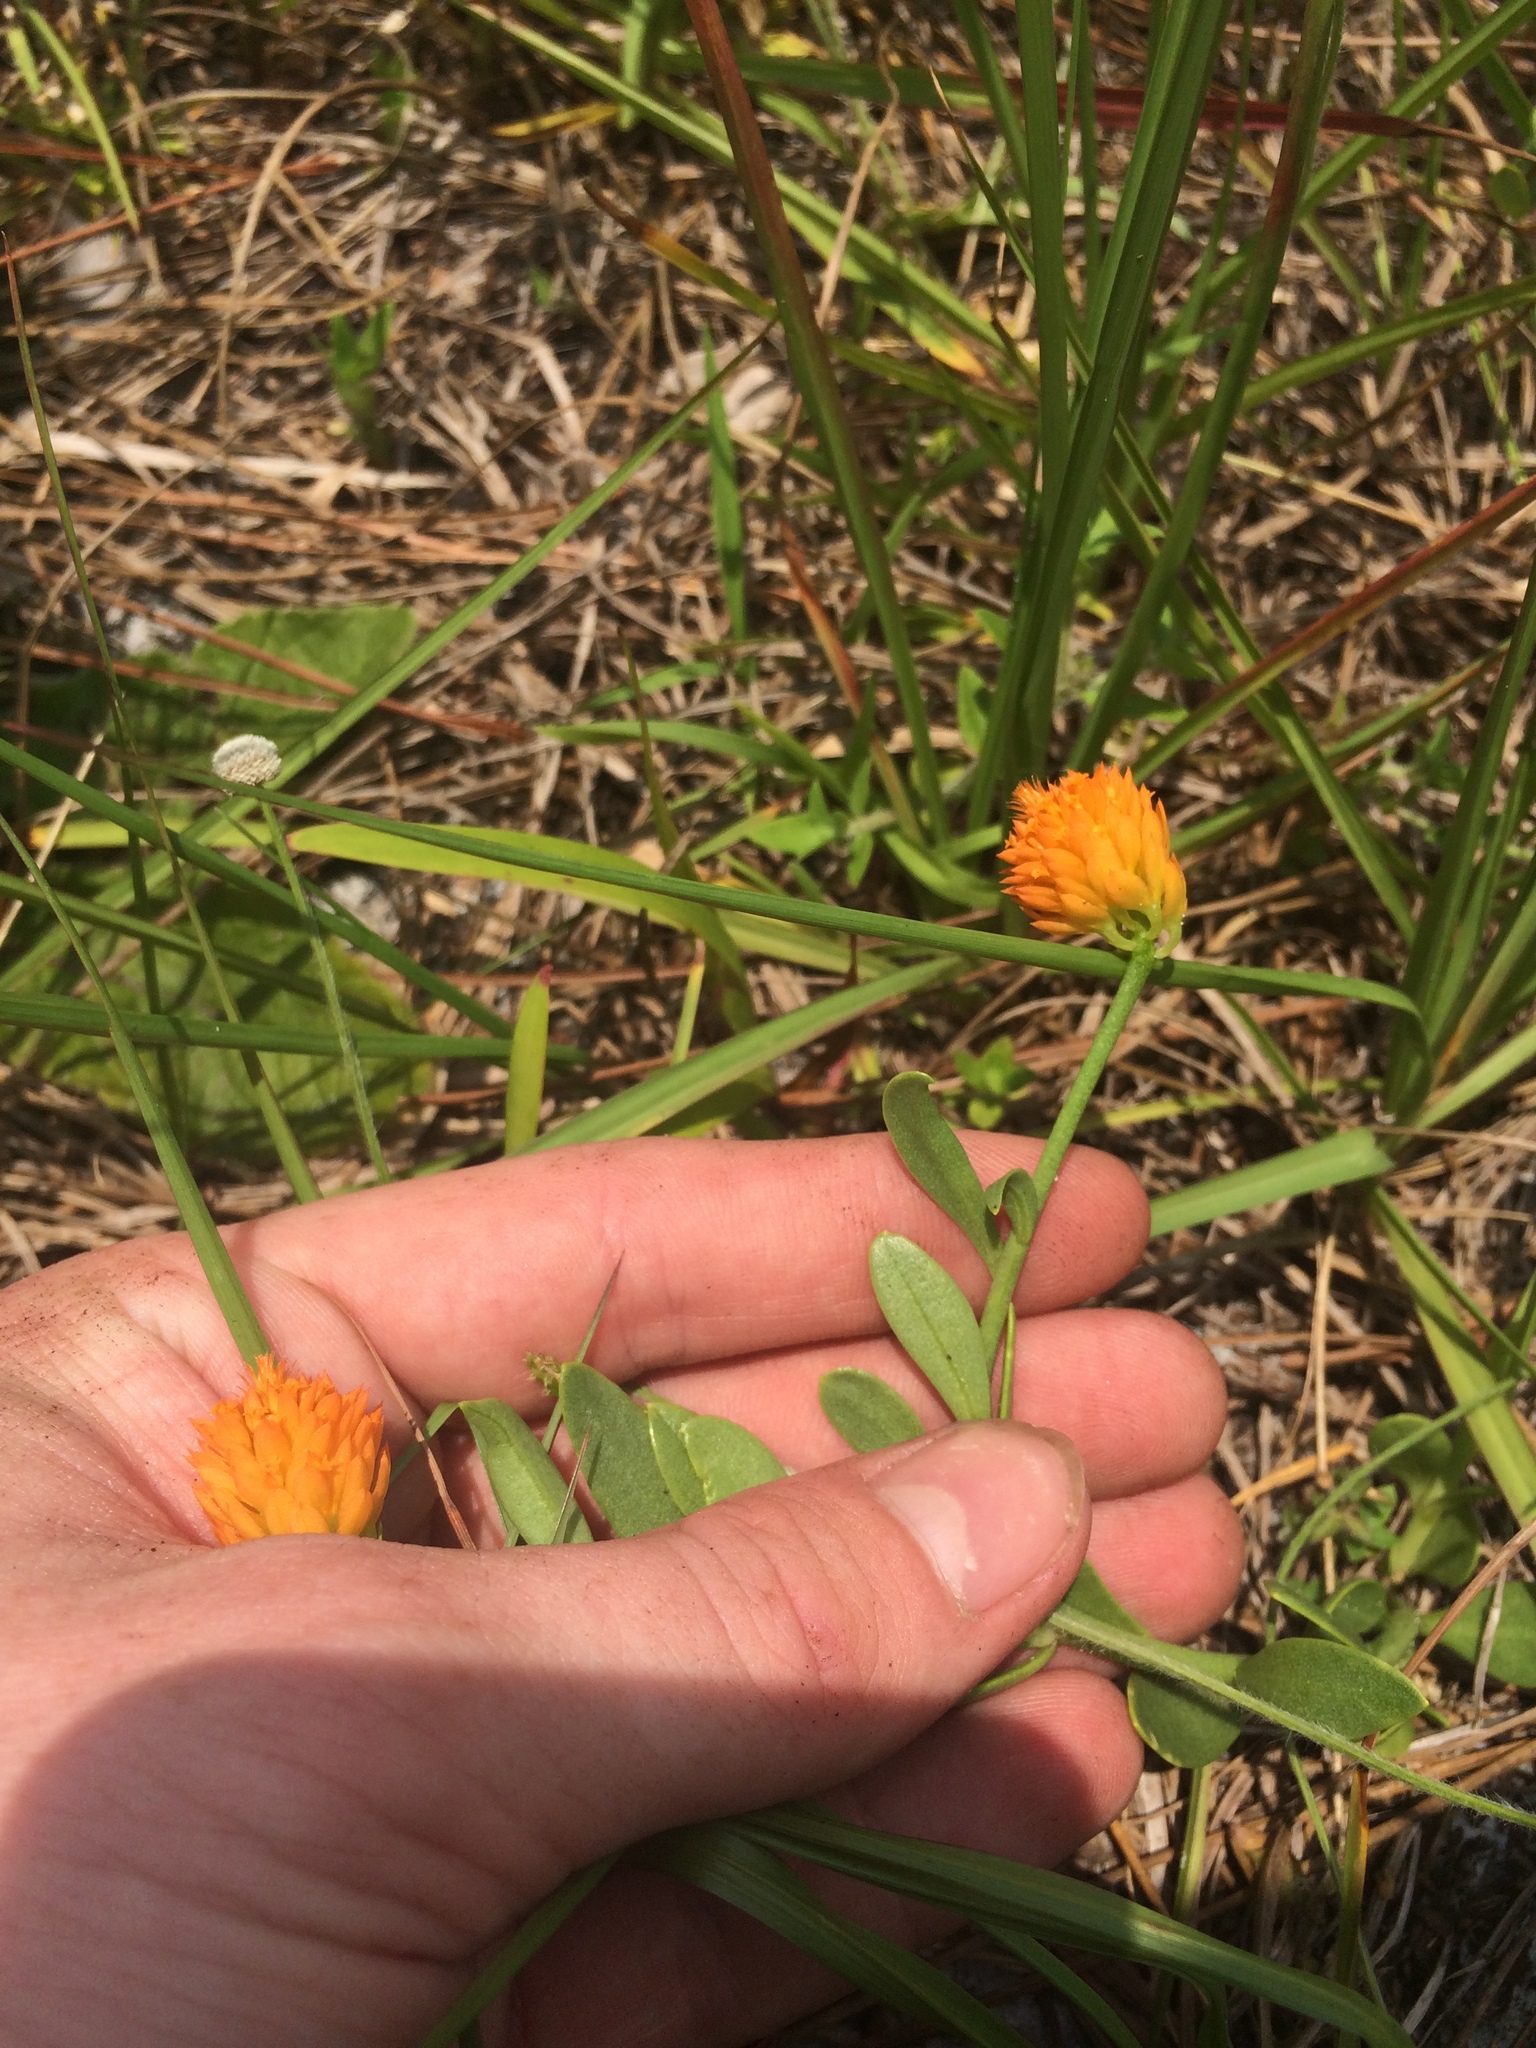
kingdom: Plantae
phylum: Tracheophyta
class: Magnoliopsida
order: Fabales
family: Polygalaceae
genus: Polygala
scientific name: Polygala lutea
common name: Orange milkwort
